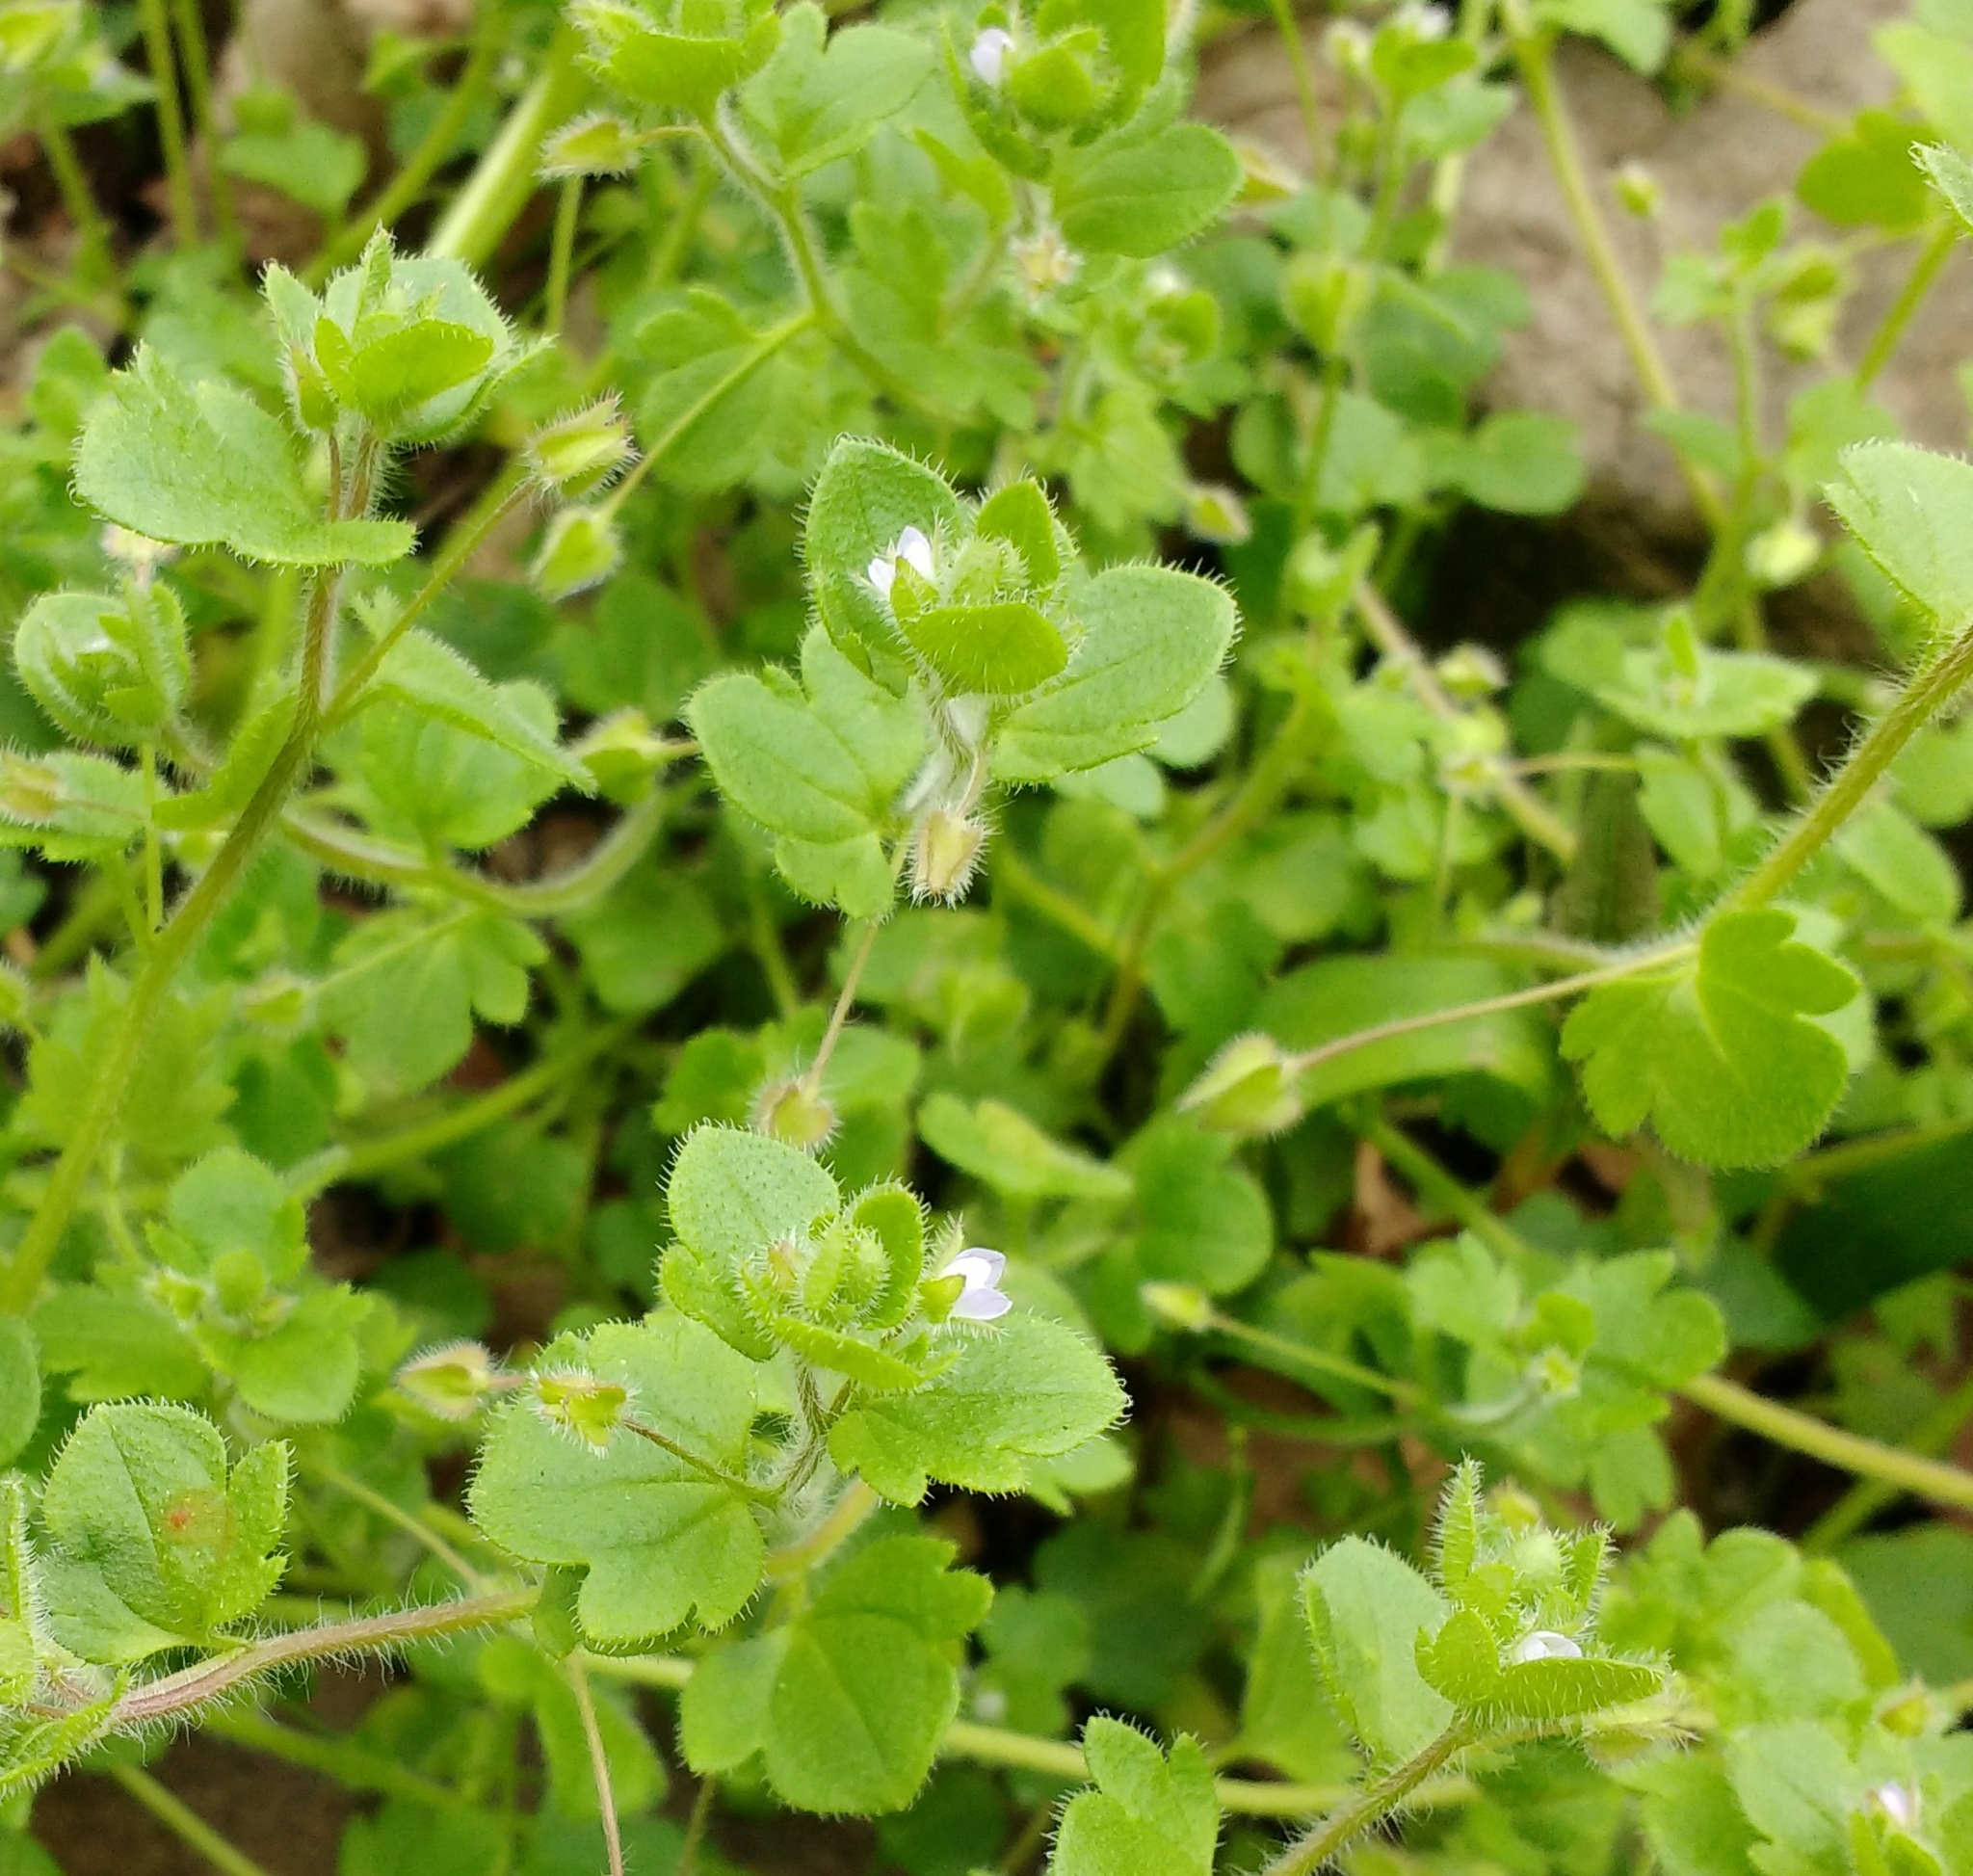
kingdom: Plantae
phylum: Tracheophyta
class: Magnoliopsida
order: Lamiales
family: Plantaginaceae
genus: Veronica
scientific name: Veronica sublobata
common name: False ivy-leaved speedwell
